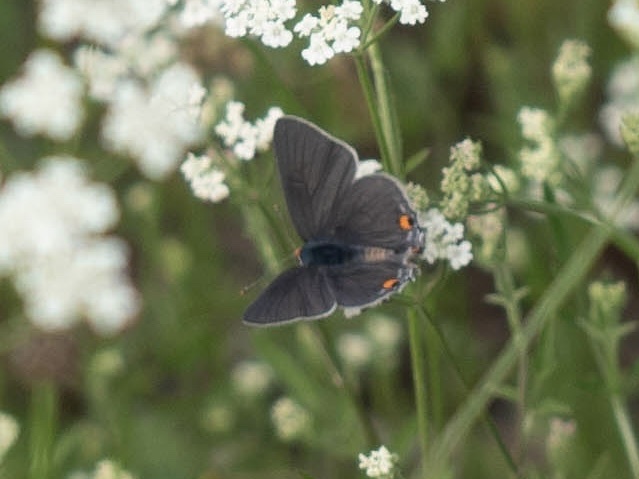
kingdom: Animalia
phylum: Arthropoda
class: Insecta
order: Lepidoptera
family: Lycaenidae
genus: Strymon
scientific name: Strymon melinus
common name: Gray hairstreak
